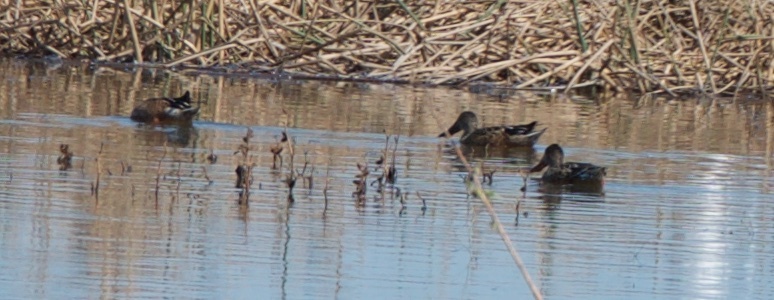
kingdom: Animalia
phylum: Chordata
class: Aves
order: Anseriformes
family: Anatidae
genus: Spatula
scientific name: Spatula clypeata
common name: Northern shoveler
